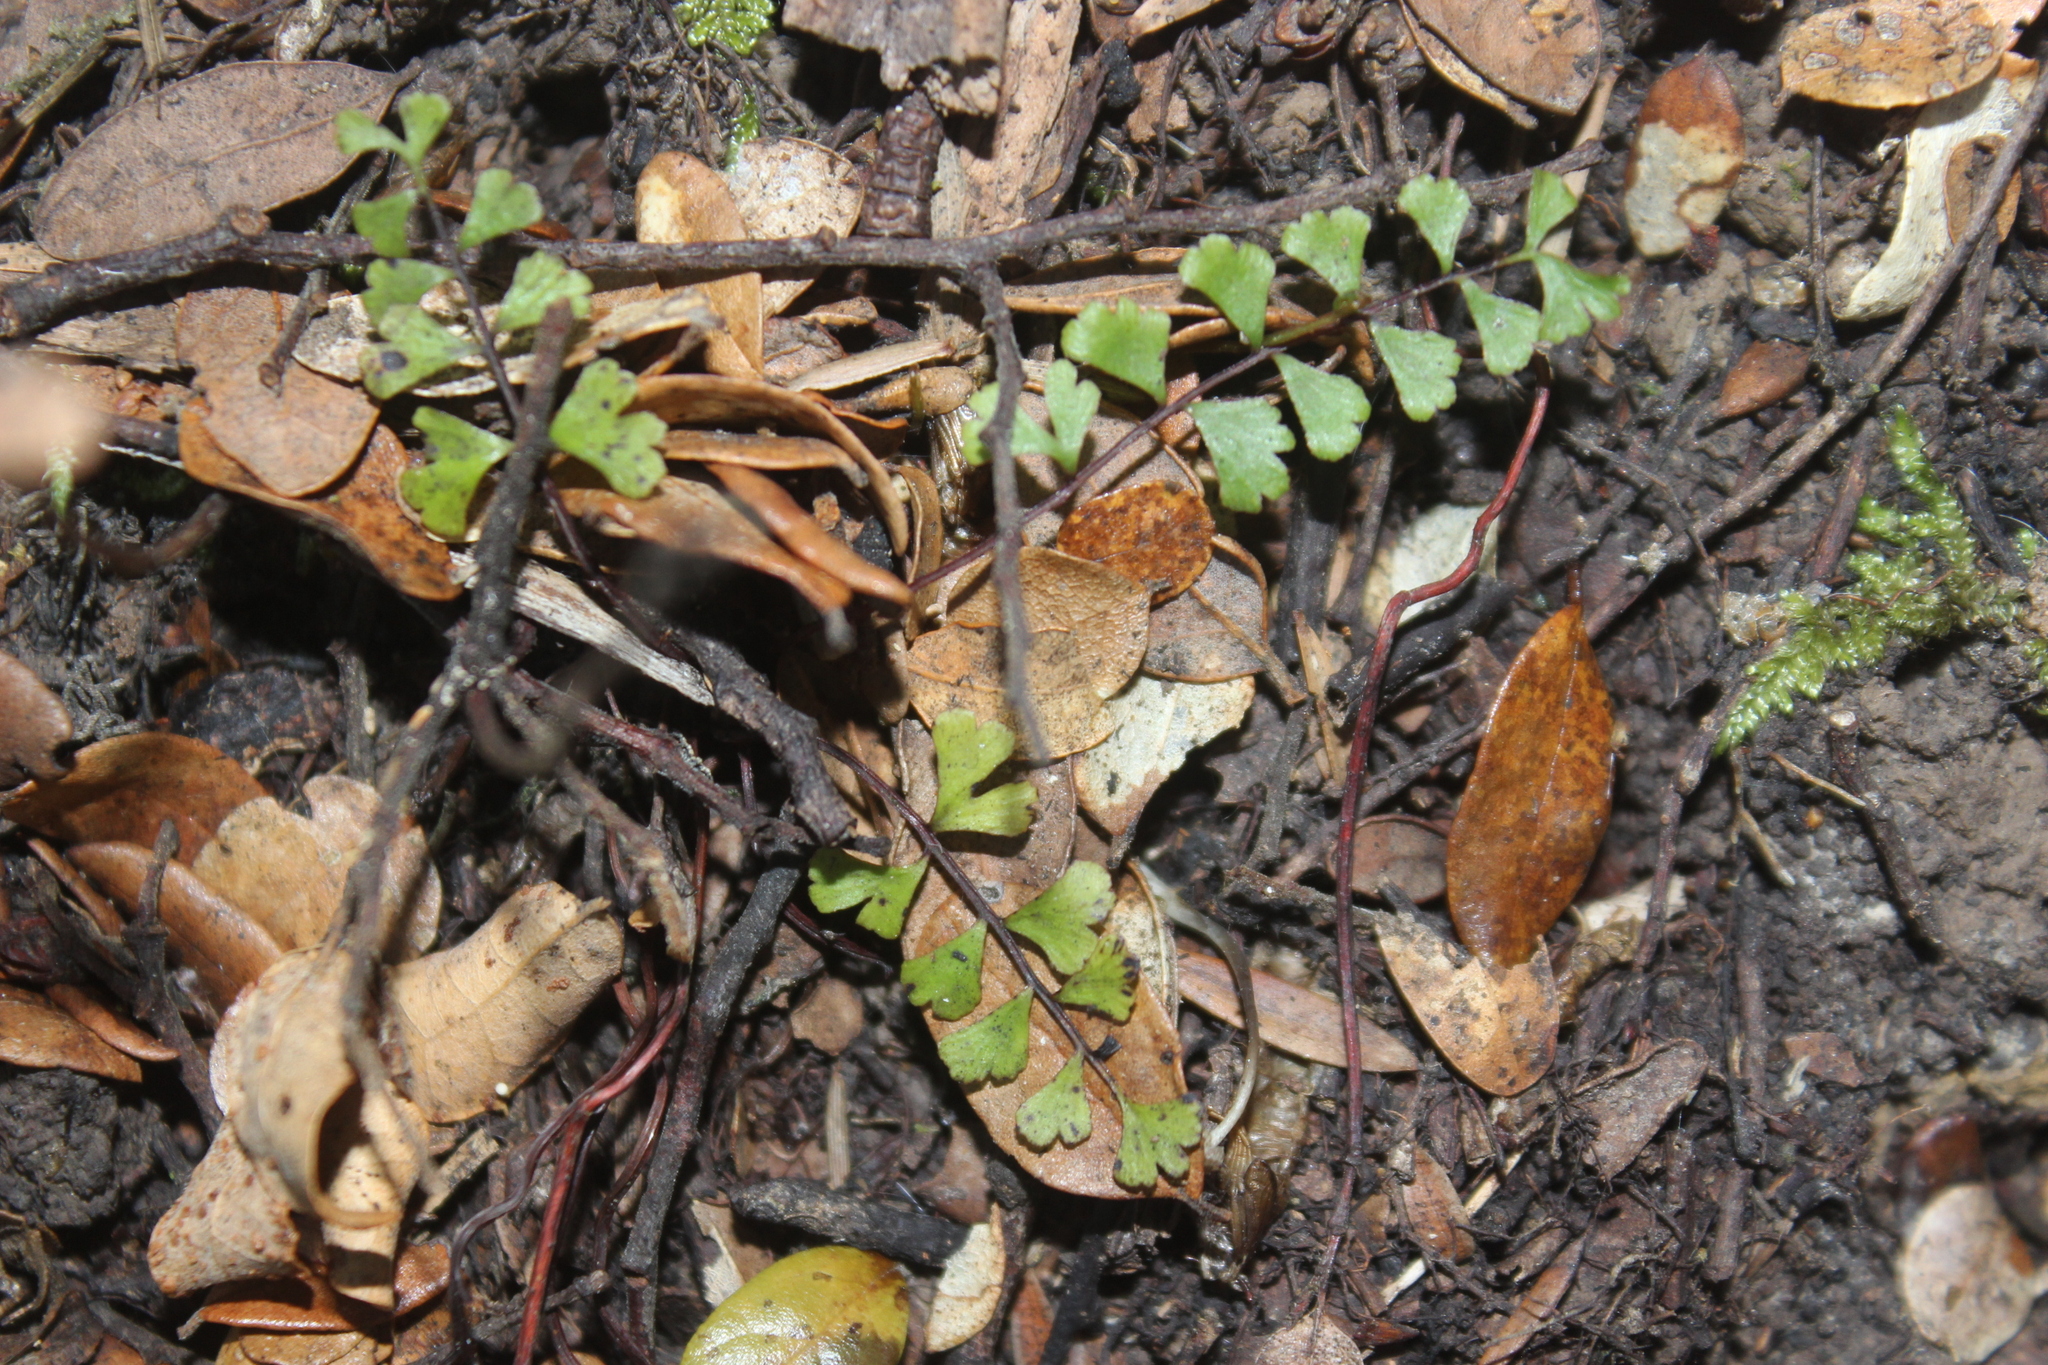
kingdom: Plantae
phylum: Tracheophyta
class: Polypodiopsida
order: Polypodiales
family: Lindsaeaceae
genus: Lindsaea
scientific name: Lindsaea linearis
